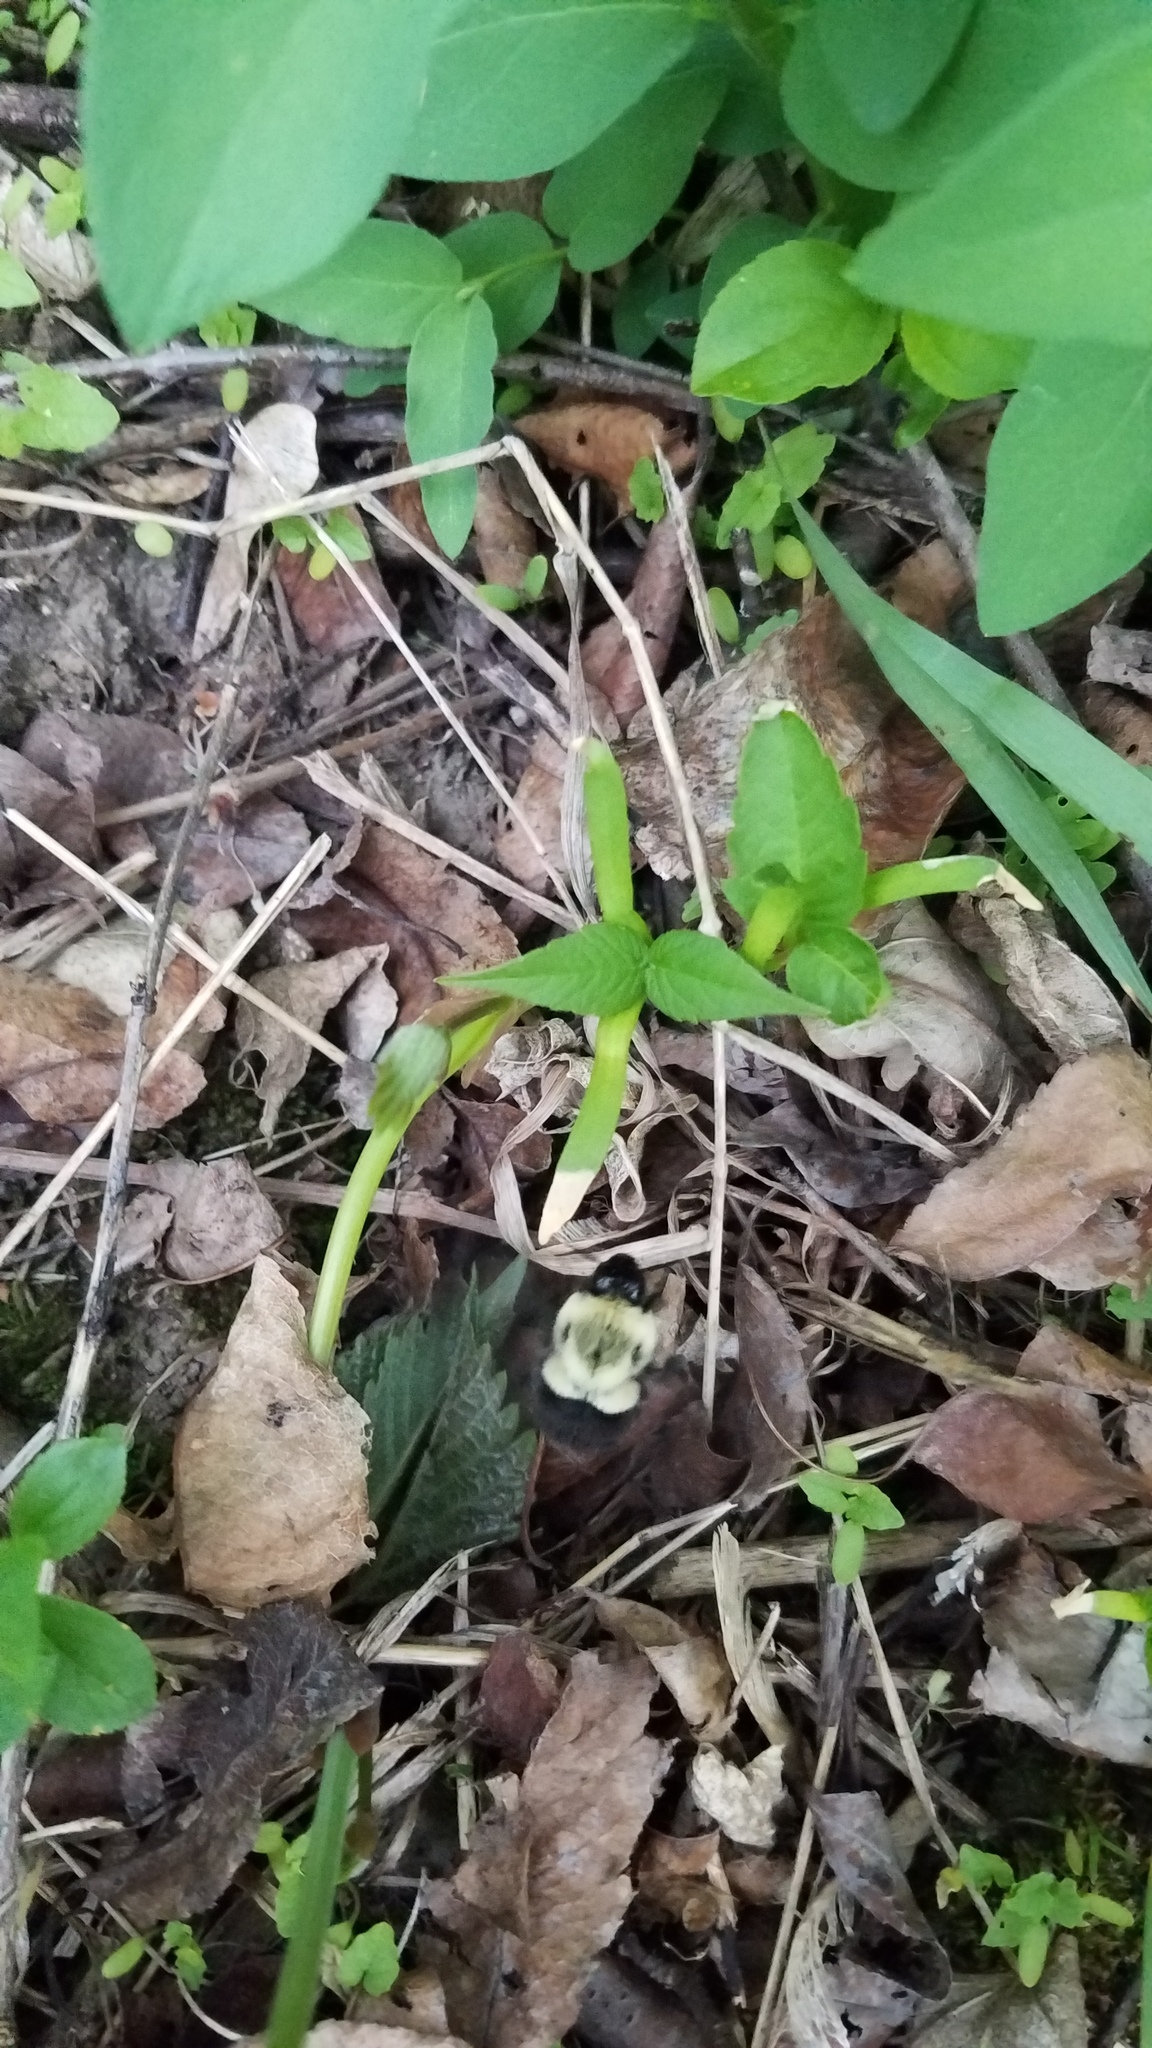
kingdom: Animalia
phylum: Arthropoda
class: Insecta
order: Hymenoptera
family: Apidae
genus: Bombus
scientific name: Bombus impatiens
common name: Common eastern bumble bee
